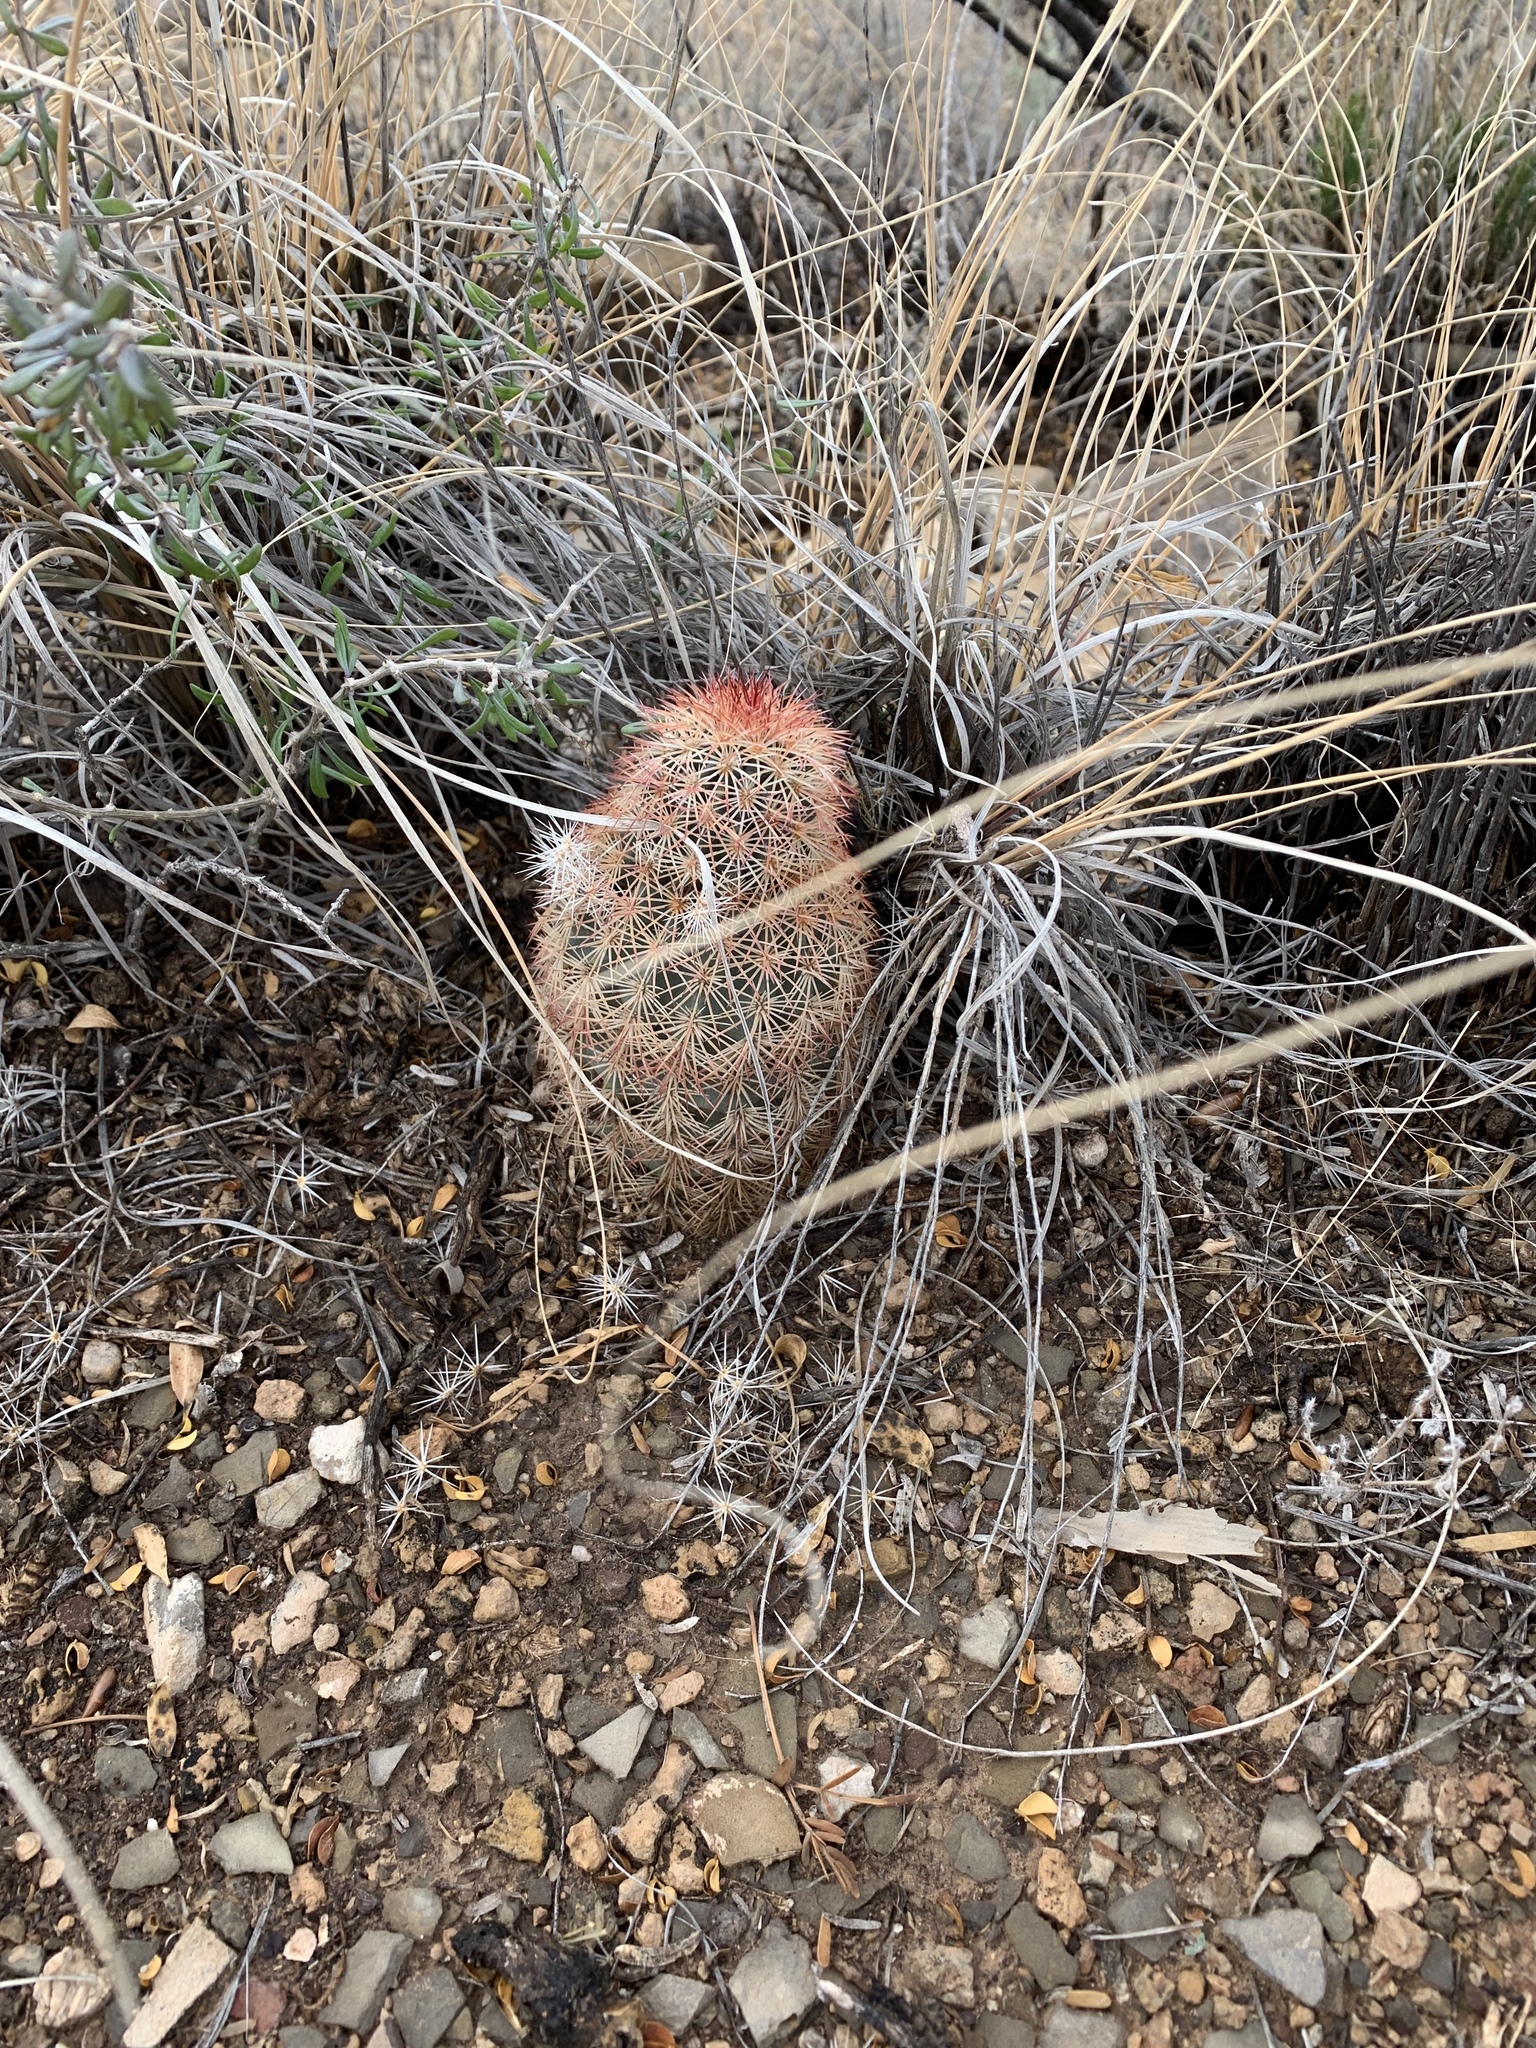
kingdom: Plantae
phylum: Tracheophyta
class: Magnoliopsida
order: Caryophyllales
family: Cactaceae
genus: Echinocereus
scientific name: Echinocereus dasyacanthus
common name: Spiny hedgehog cactus
